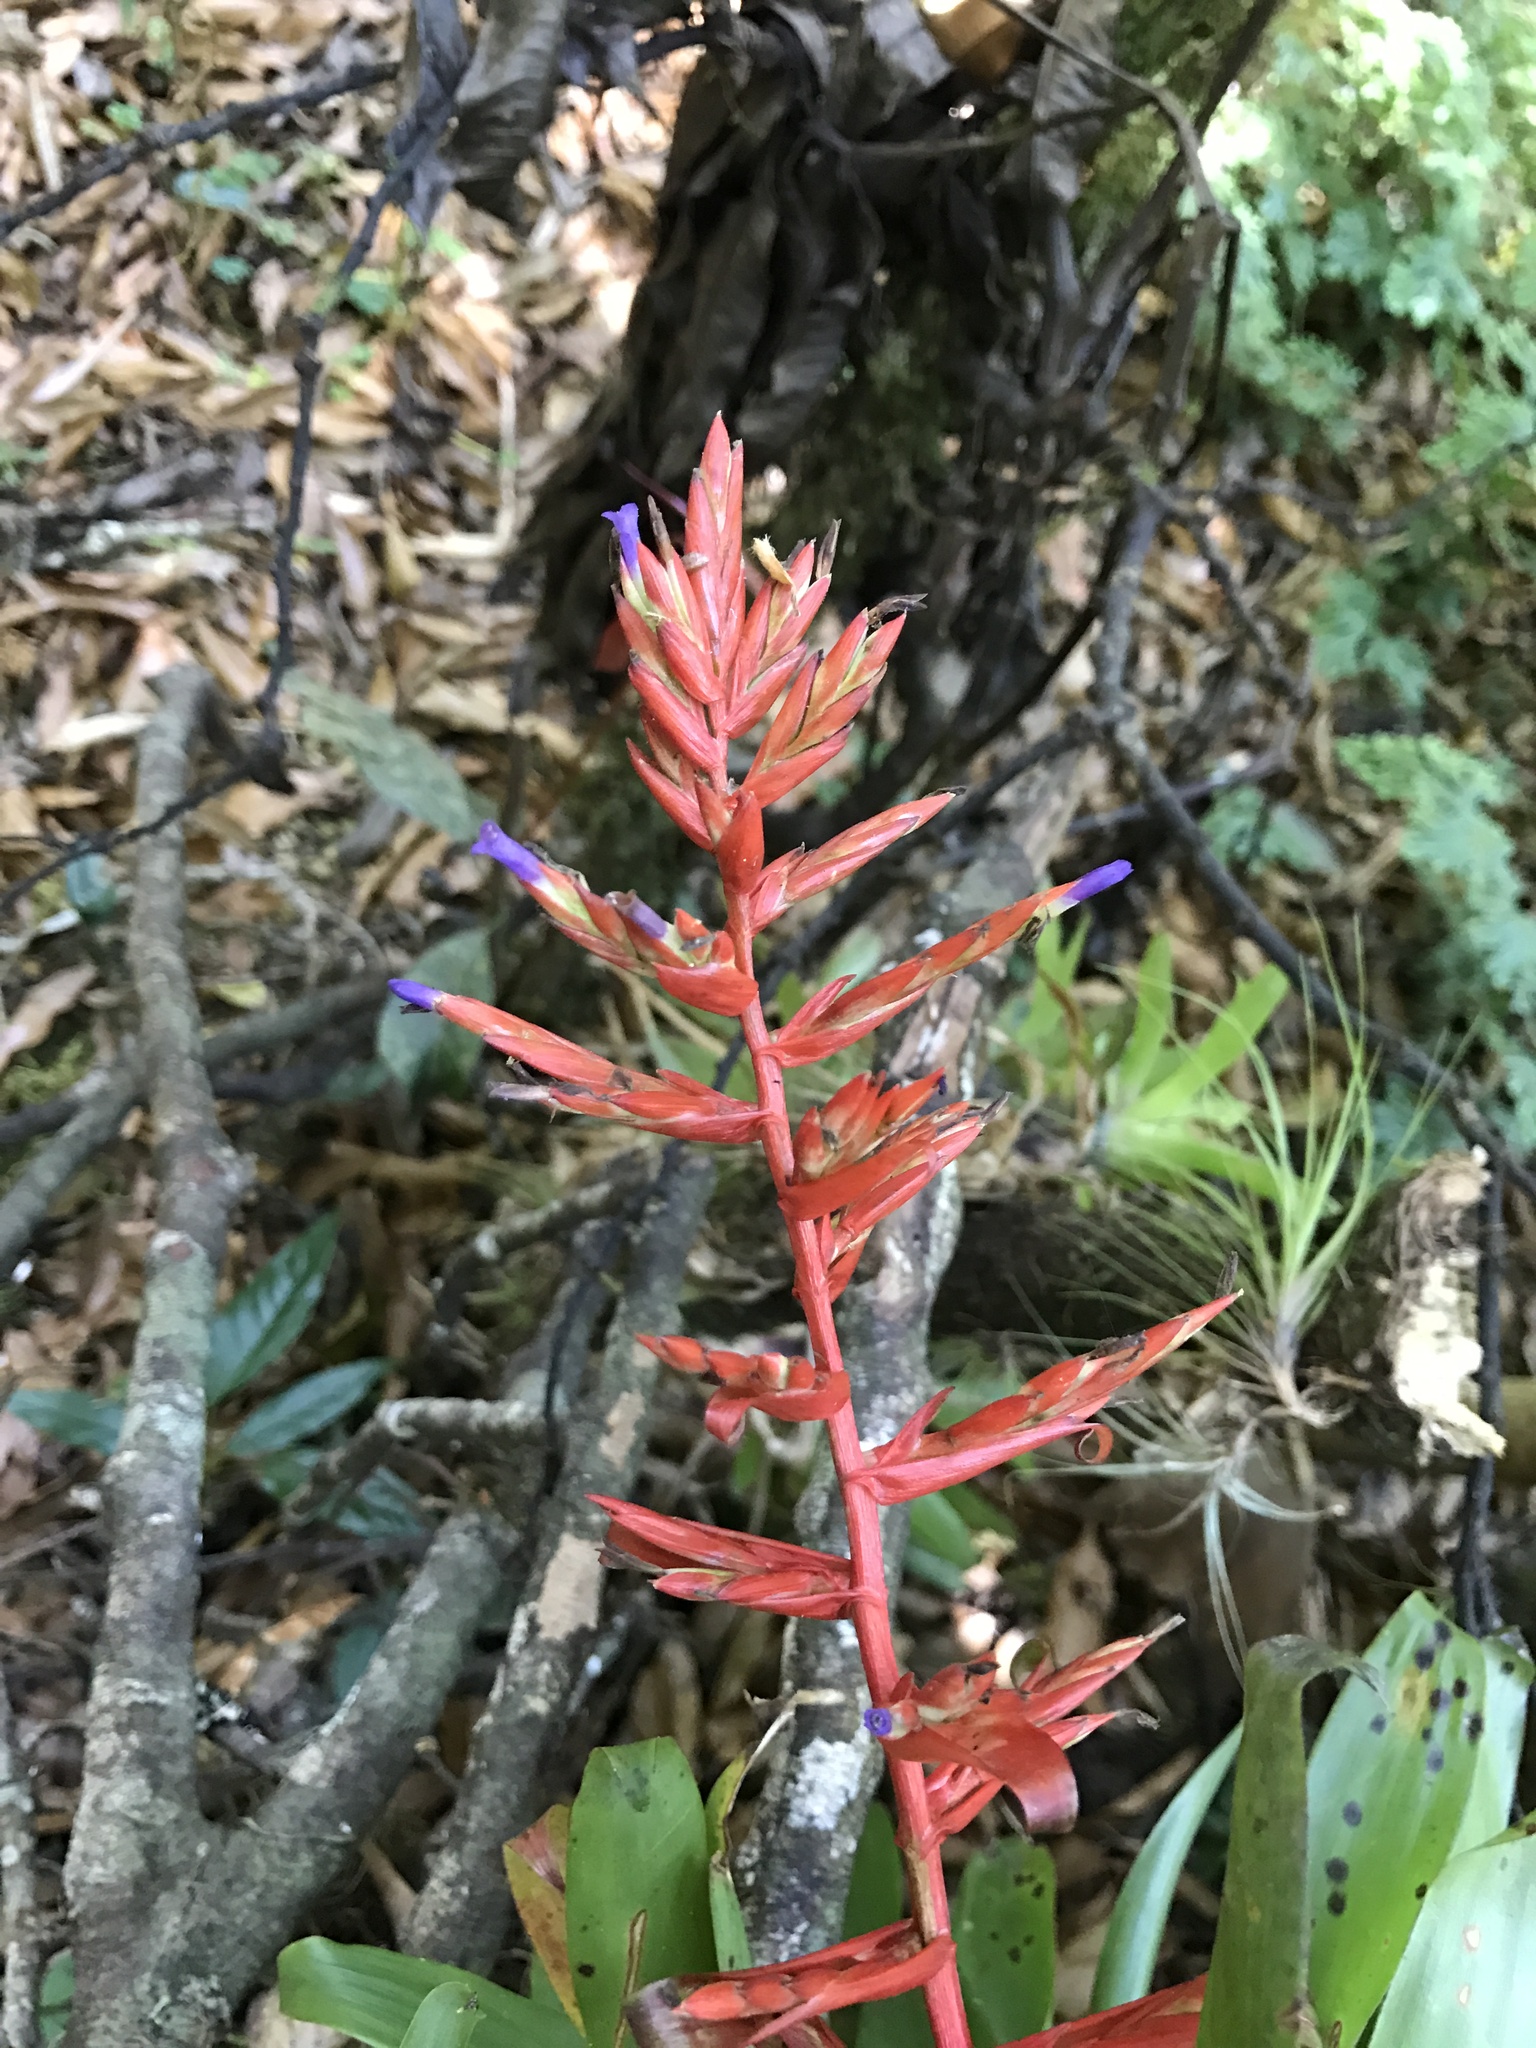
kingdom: Plantae
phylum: Tracheophyta
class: Liliopsida
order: Poales
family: Bromeliaceae
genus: Tillandsia
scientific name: Tillandsia guatemalensis
